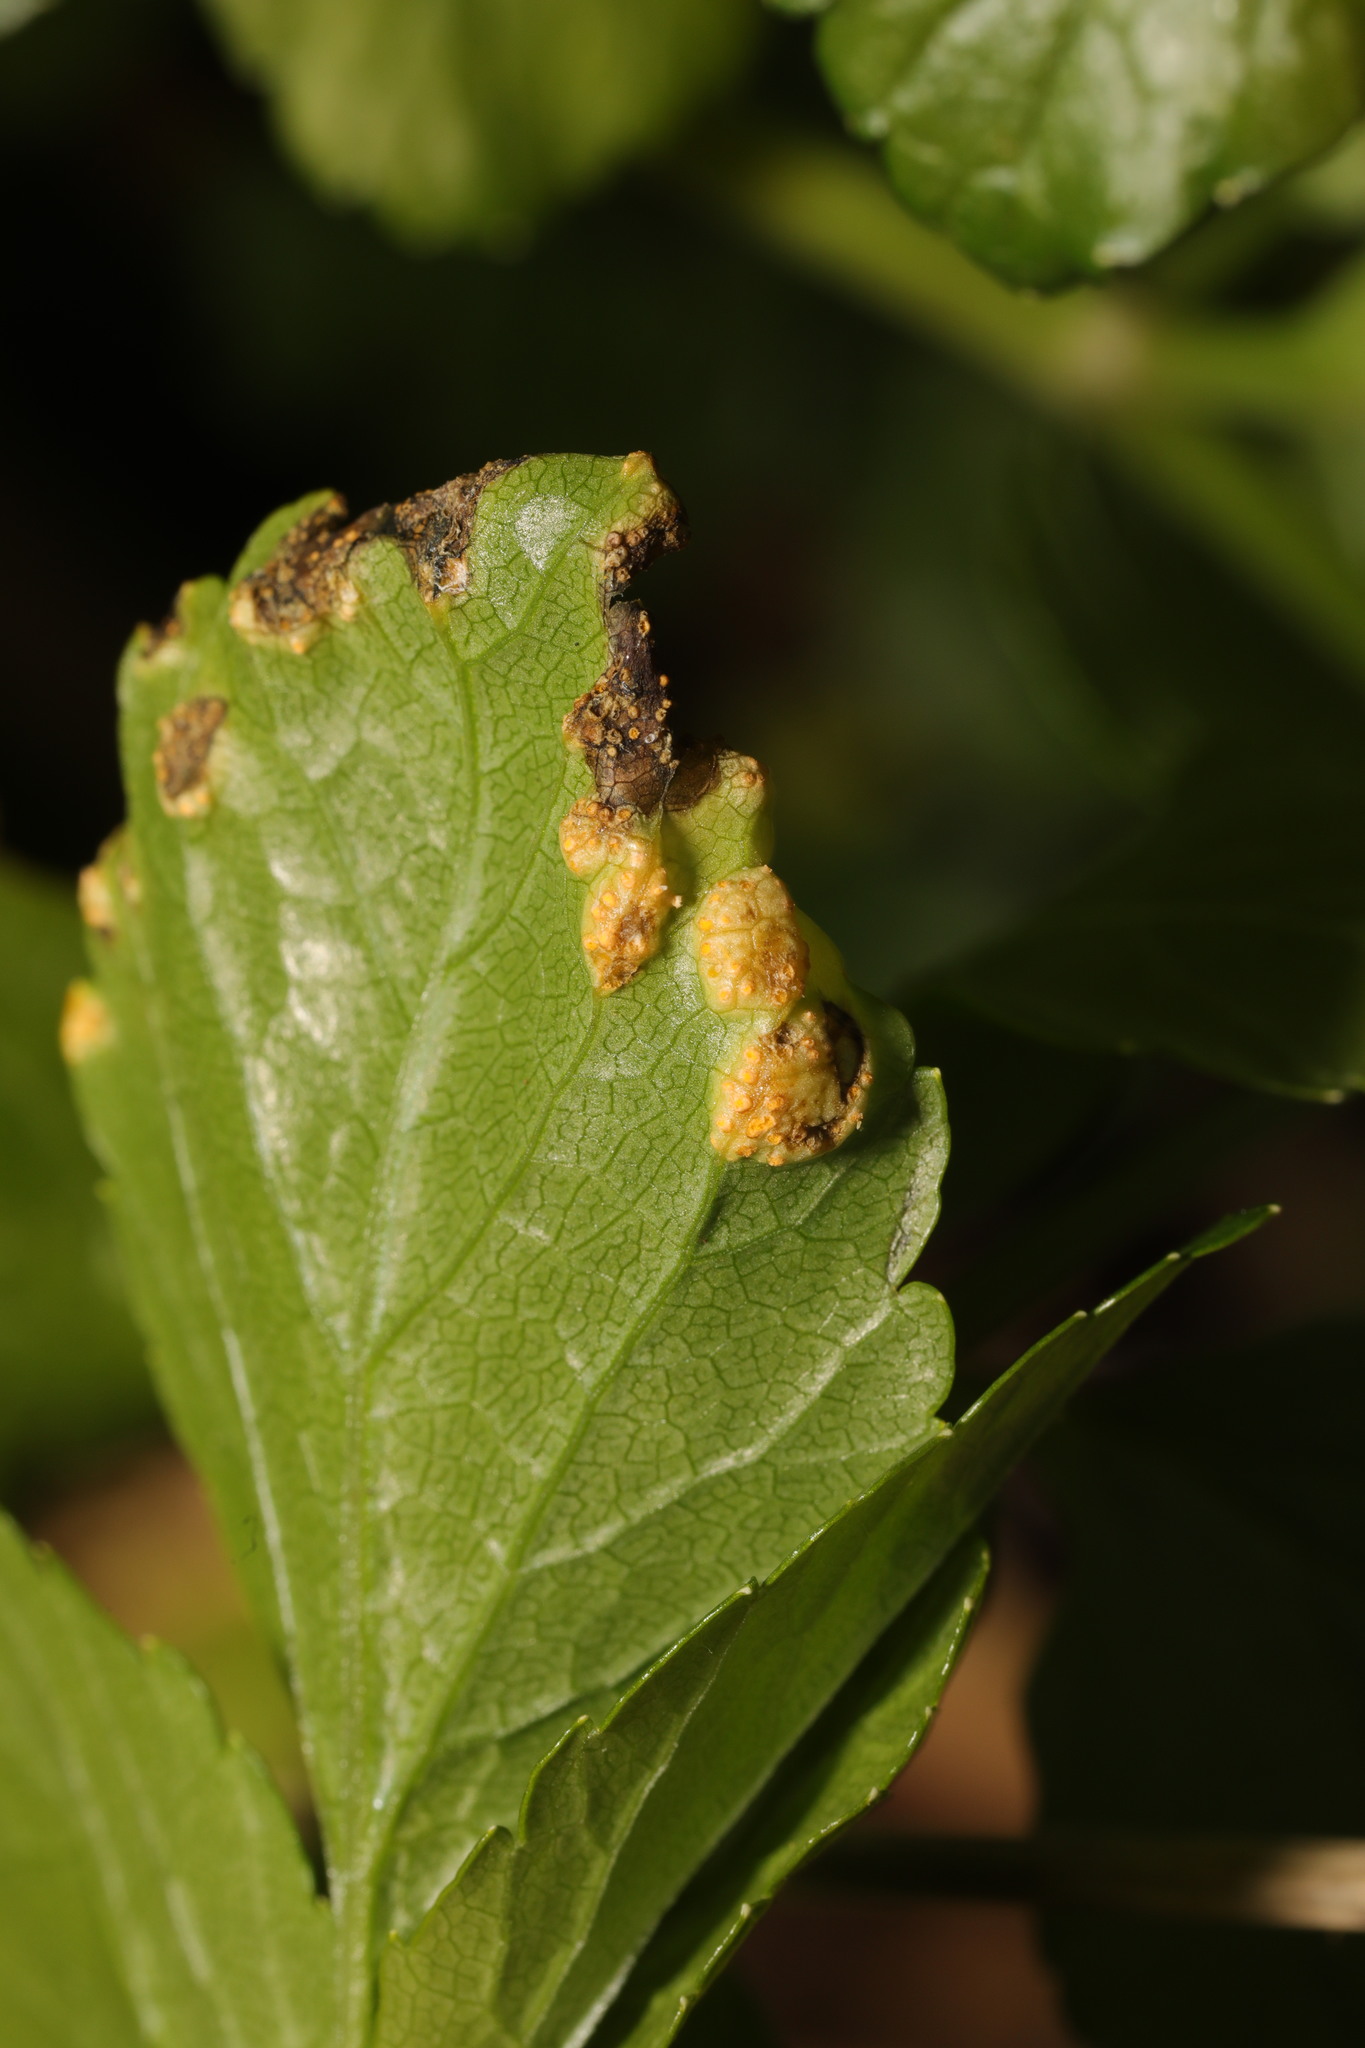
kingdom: Fungi
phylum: Basidiomycota
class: Pucciniomycetes
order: Pucciniales
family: Pucciniaceae
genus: Puccinia
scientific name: Puccinia smyrnii
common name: Alexanders rust
